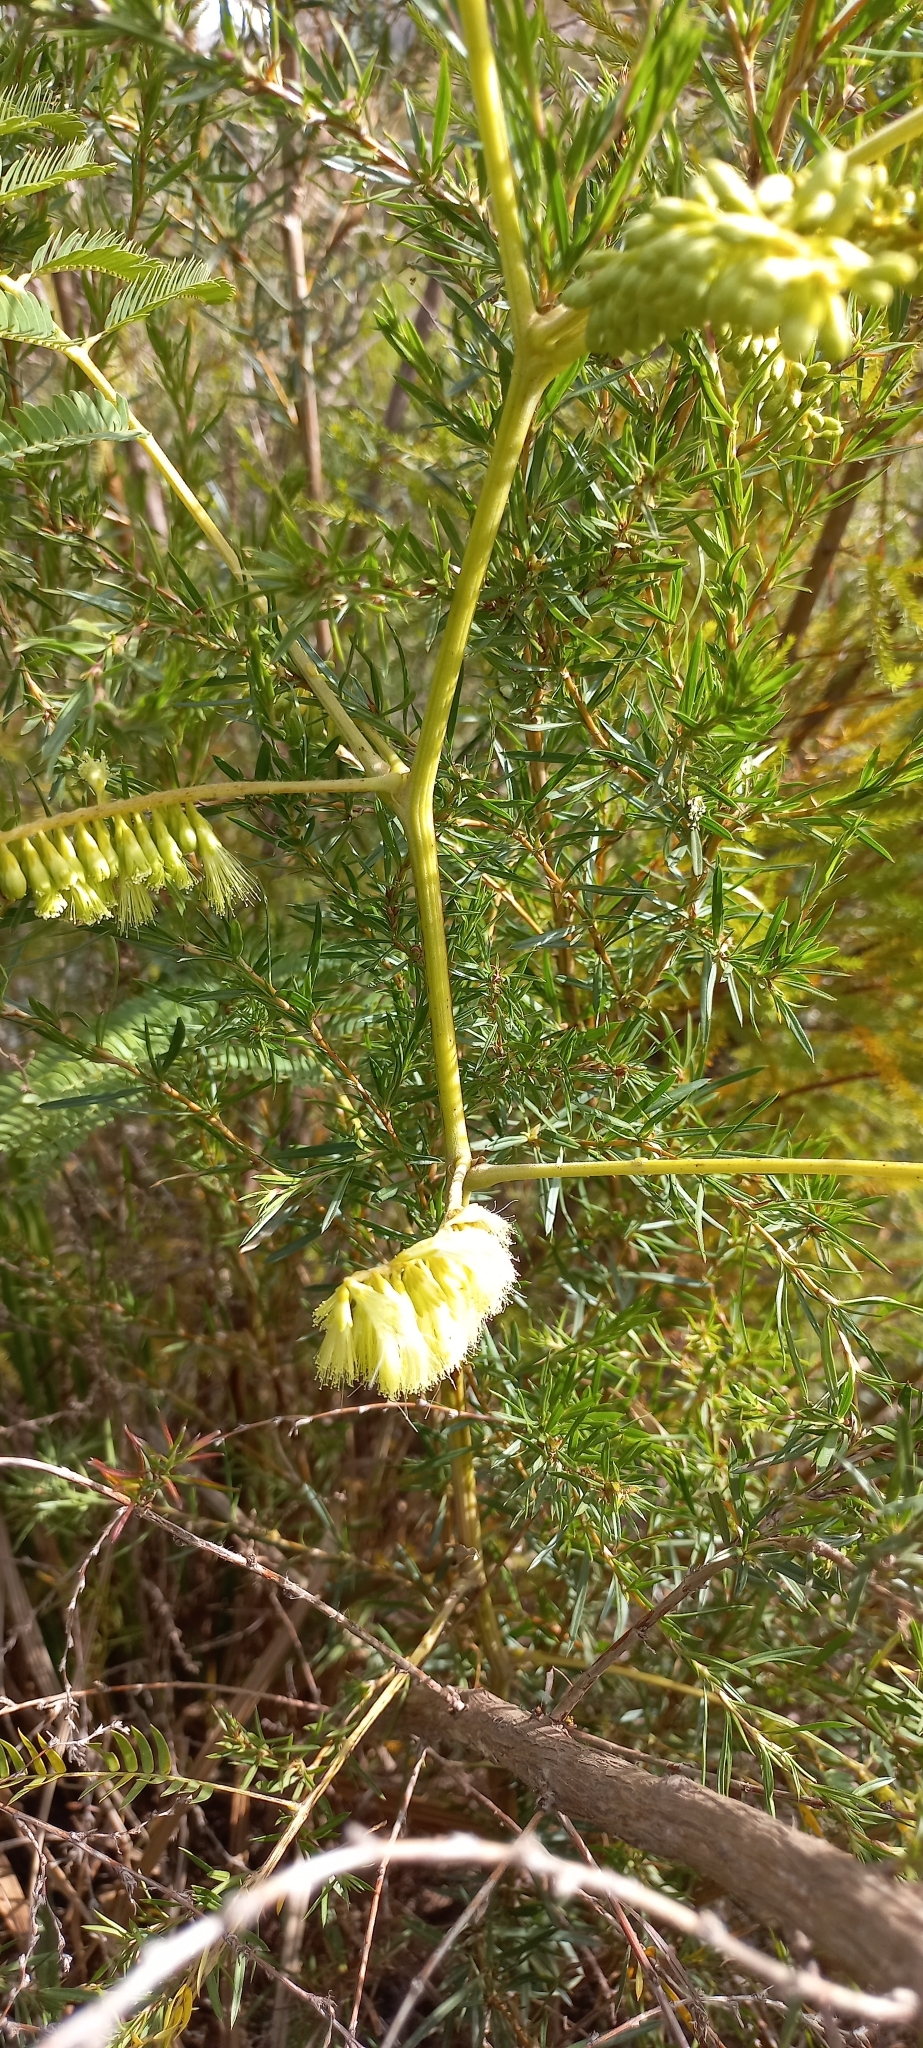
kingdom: Plantae
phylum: Tracheophyta
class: Magnoliopsida
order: Fabales
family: Fabaceae
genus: Paraserianthes
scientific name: Paraserianthes lophantha
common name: Plume albizia
